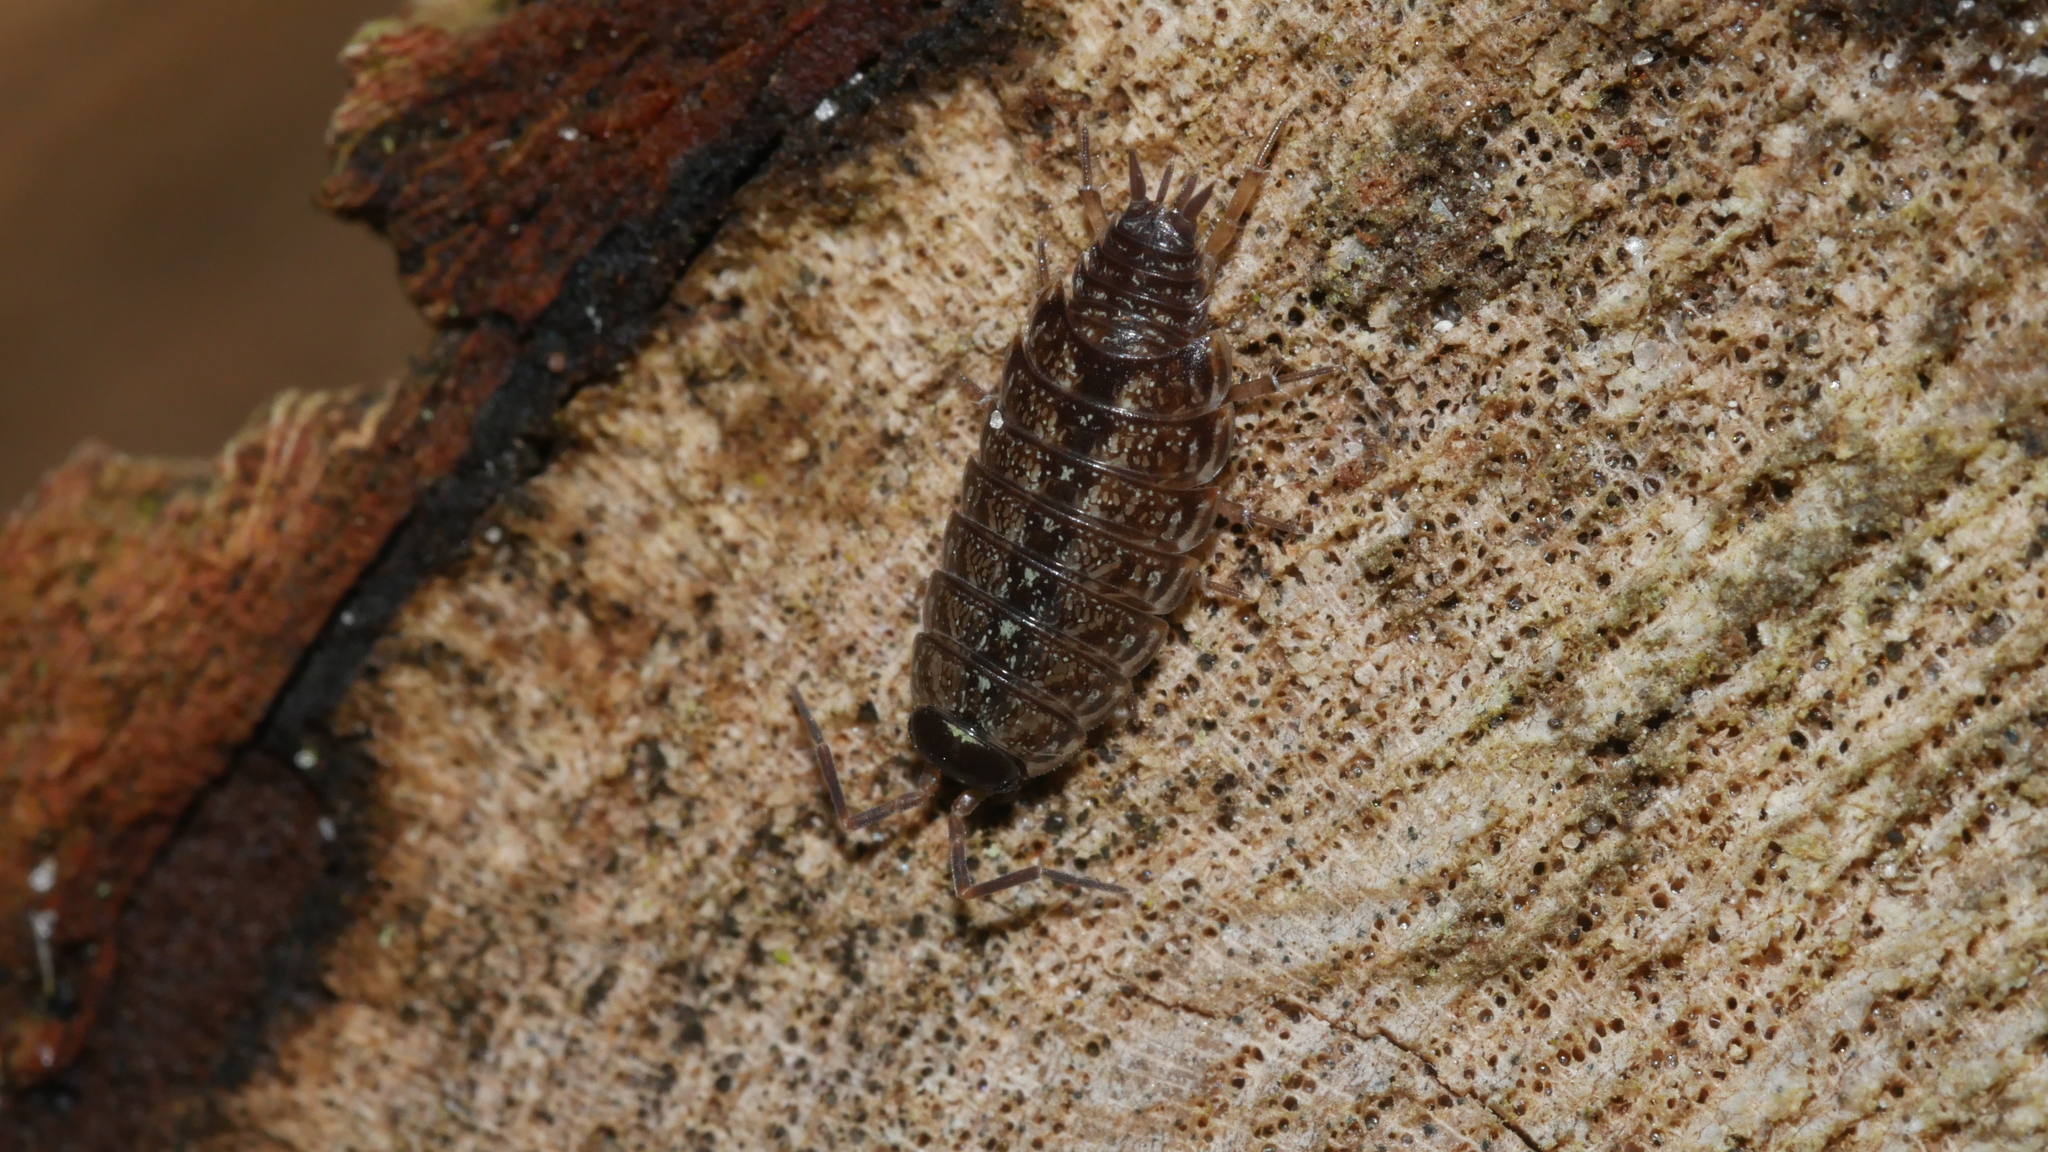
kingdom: Animalia
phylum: Arthropoda
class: Malacostraca
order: Isopoda
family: Philosciidae
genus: Philoscia
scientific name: Philoscia muscorum
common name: Common striped woodlouse
